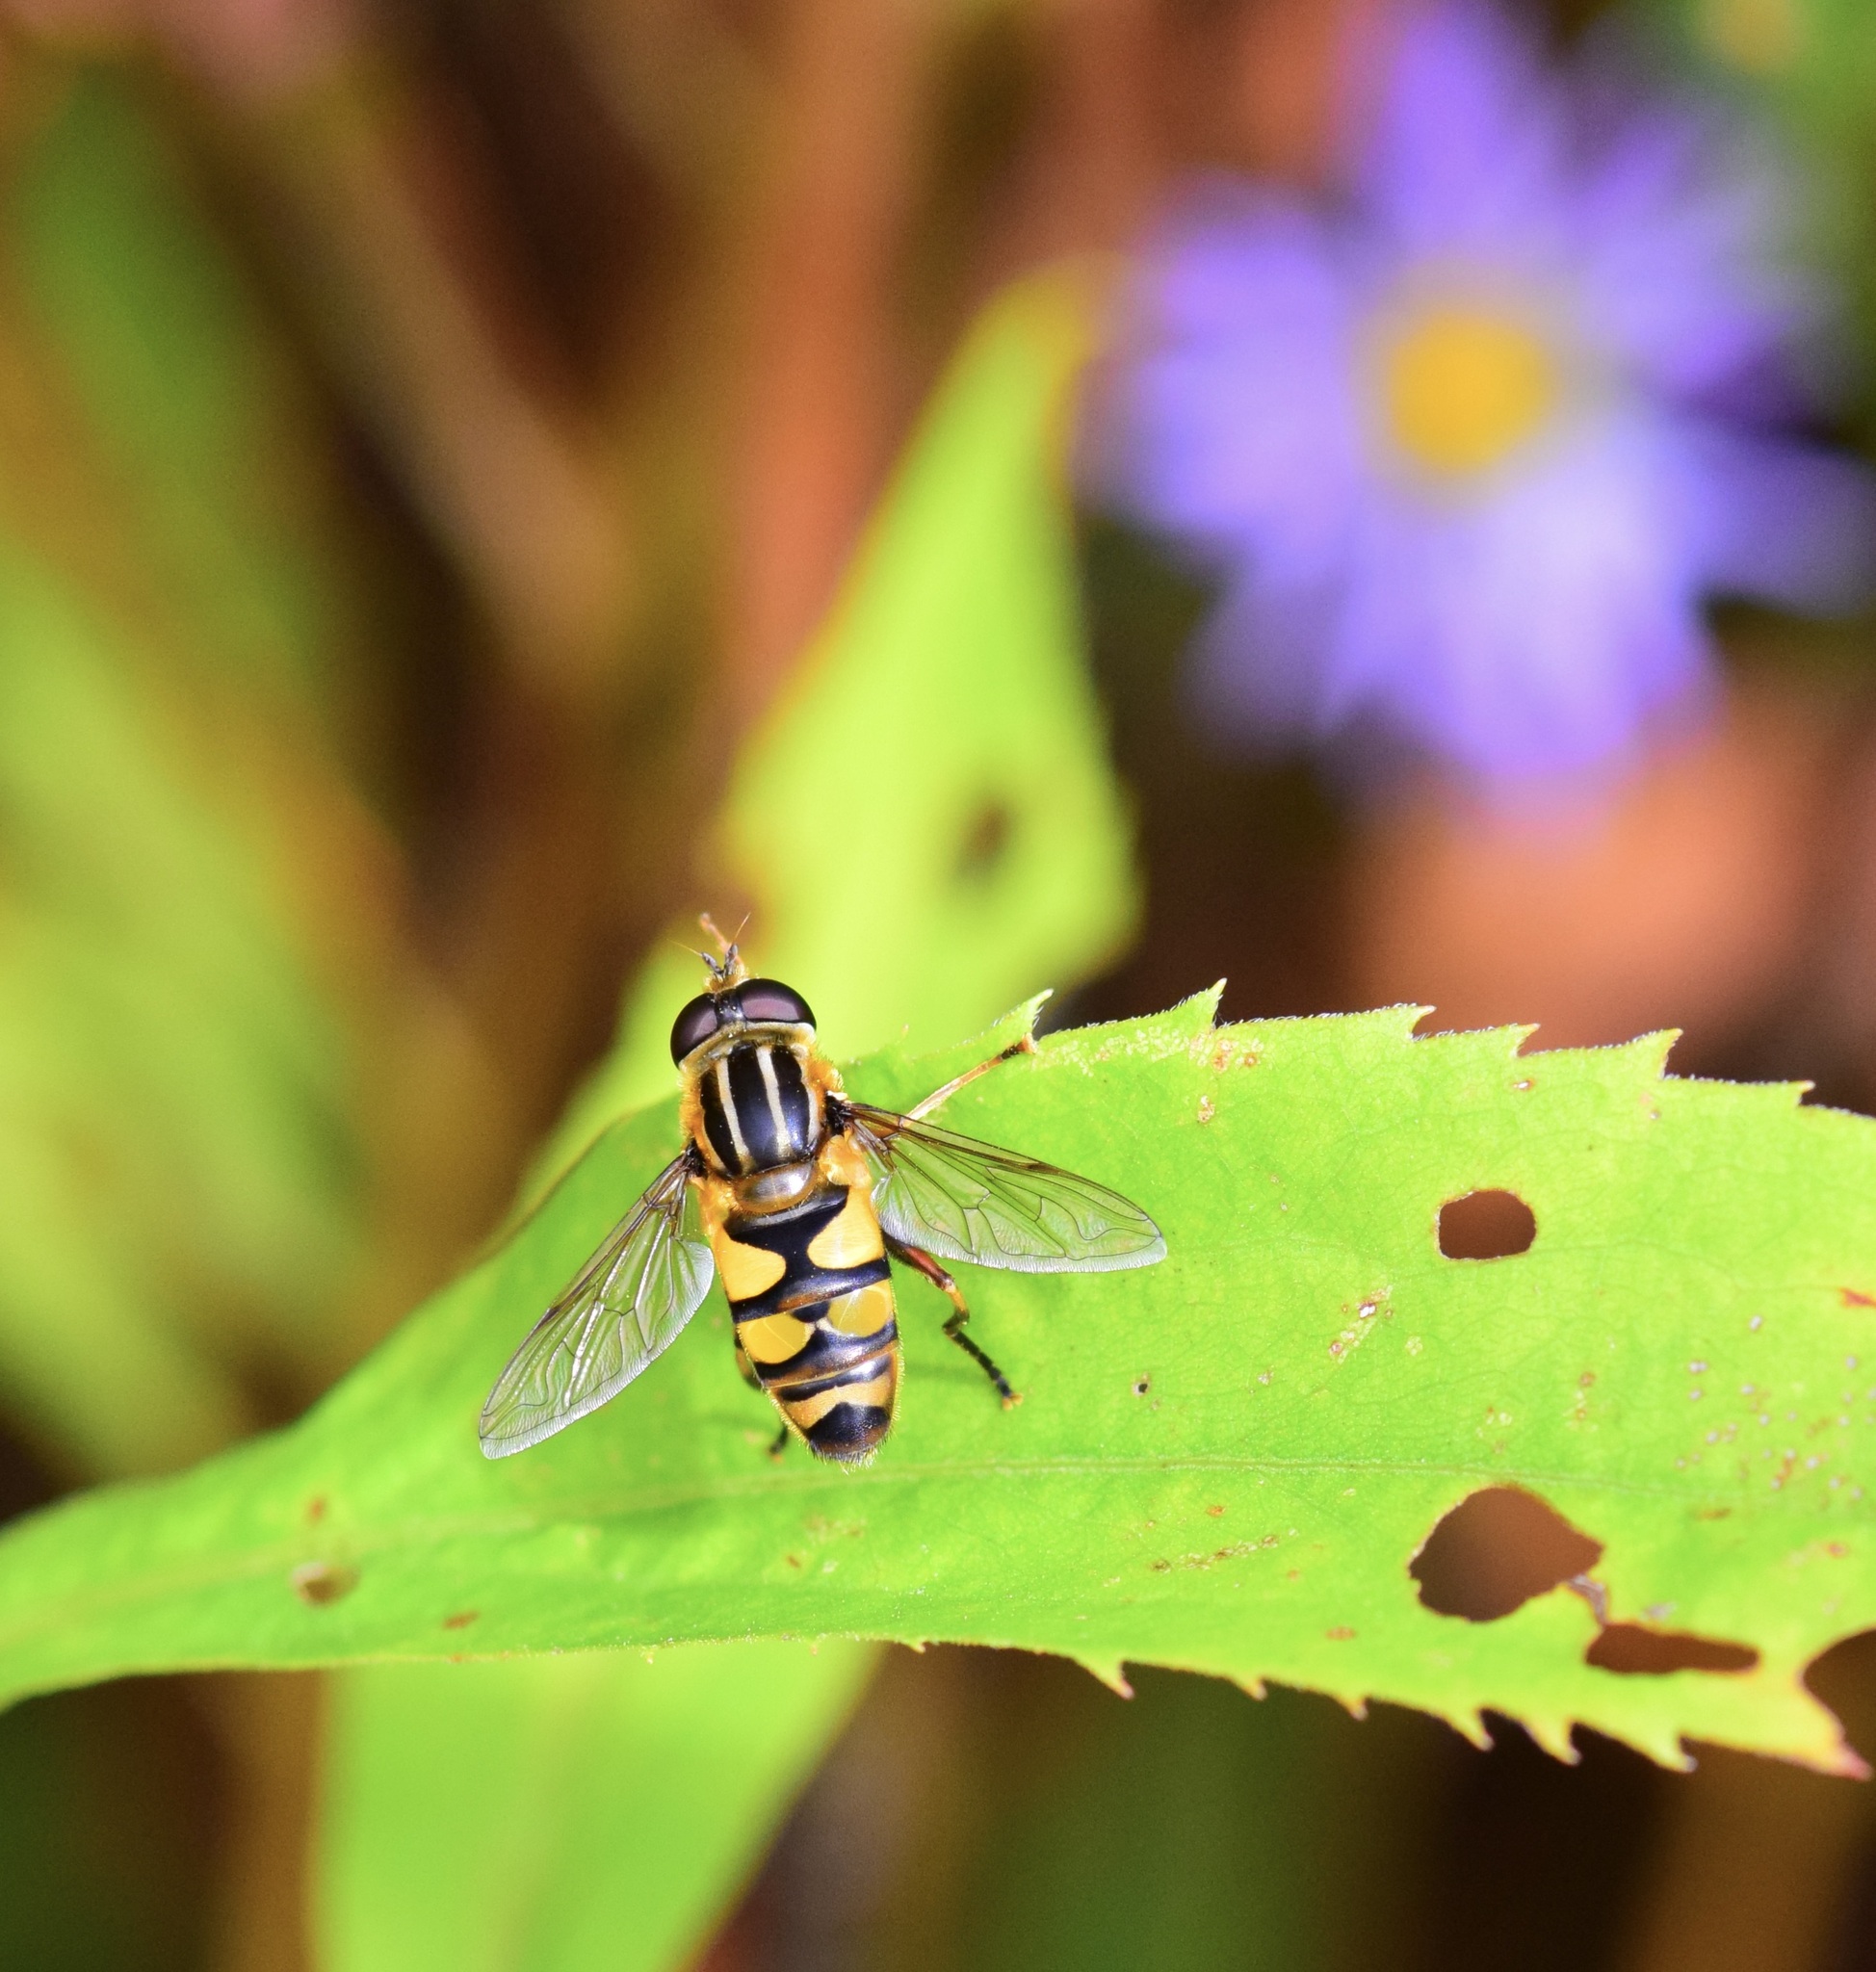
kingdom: Animalia
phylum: Arthropoda
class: Insecta
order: Diptera
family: Syrphidae
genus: Helophilus
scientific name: Helophilus fasciatus
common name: Narrow-headed marsh fly
